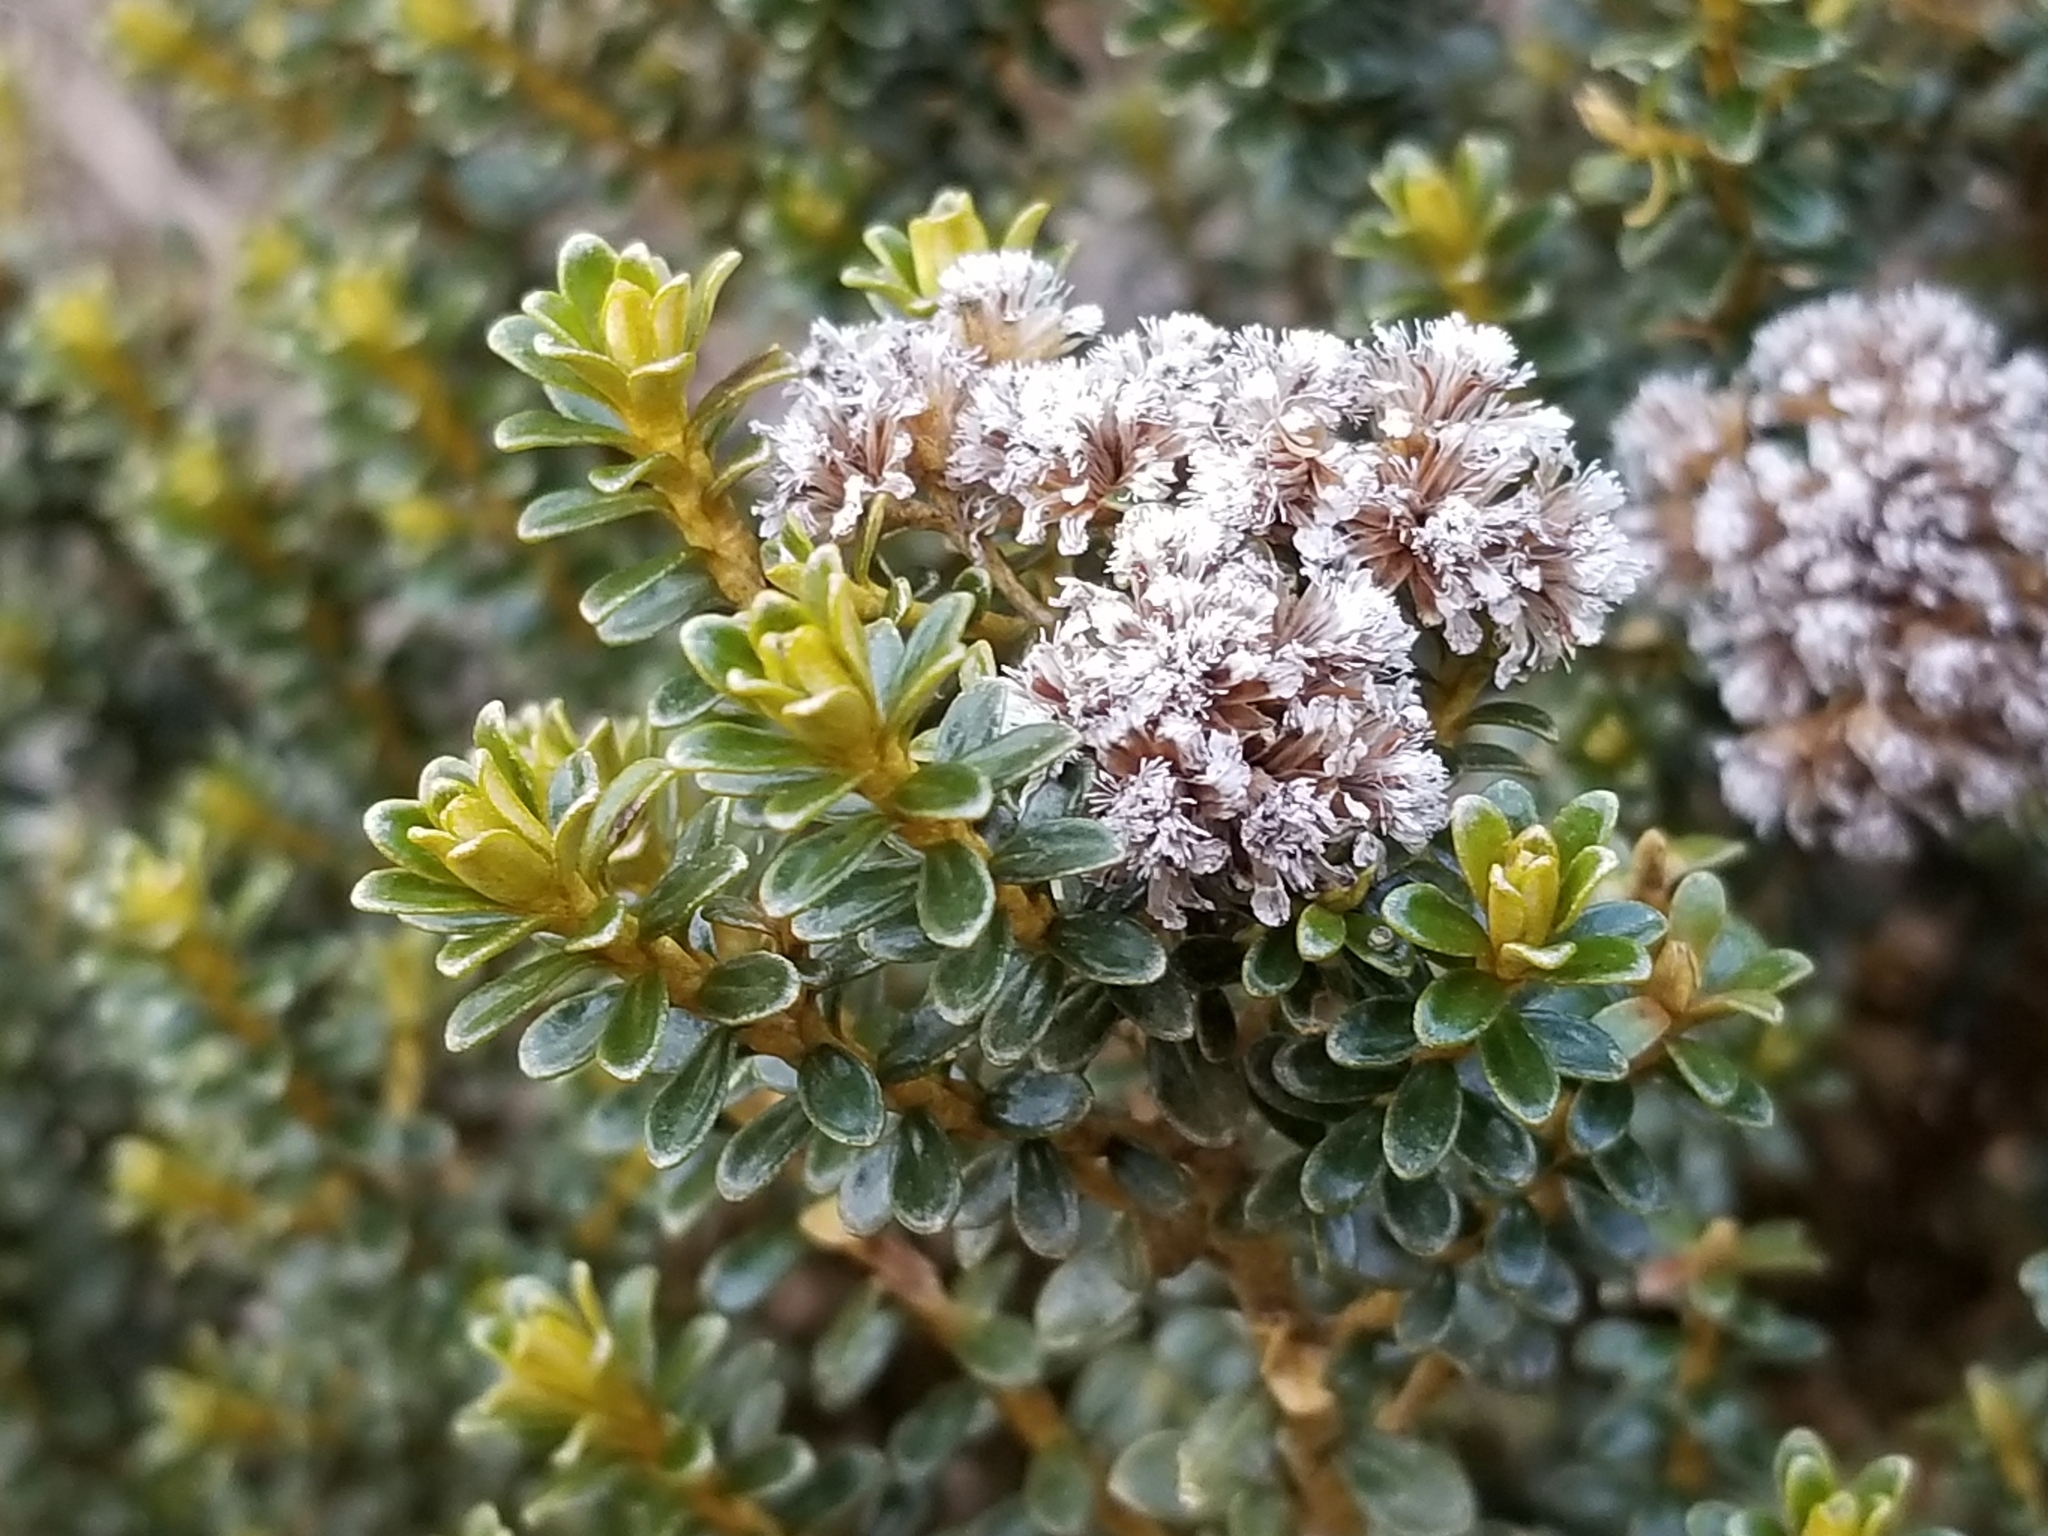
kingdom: Plantae
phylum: Tracheophyta
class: Magnoliopsida
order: Asterales
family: Asteraceae
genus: Ozothamnus
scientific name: Ozothamnus leptophyllus
